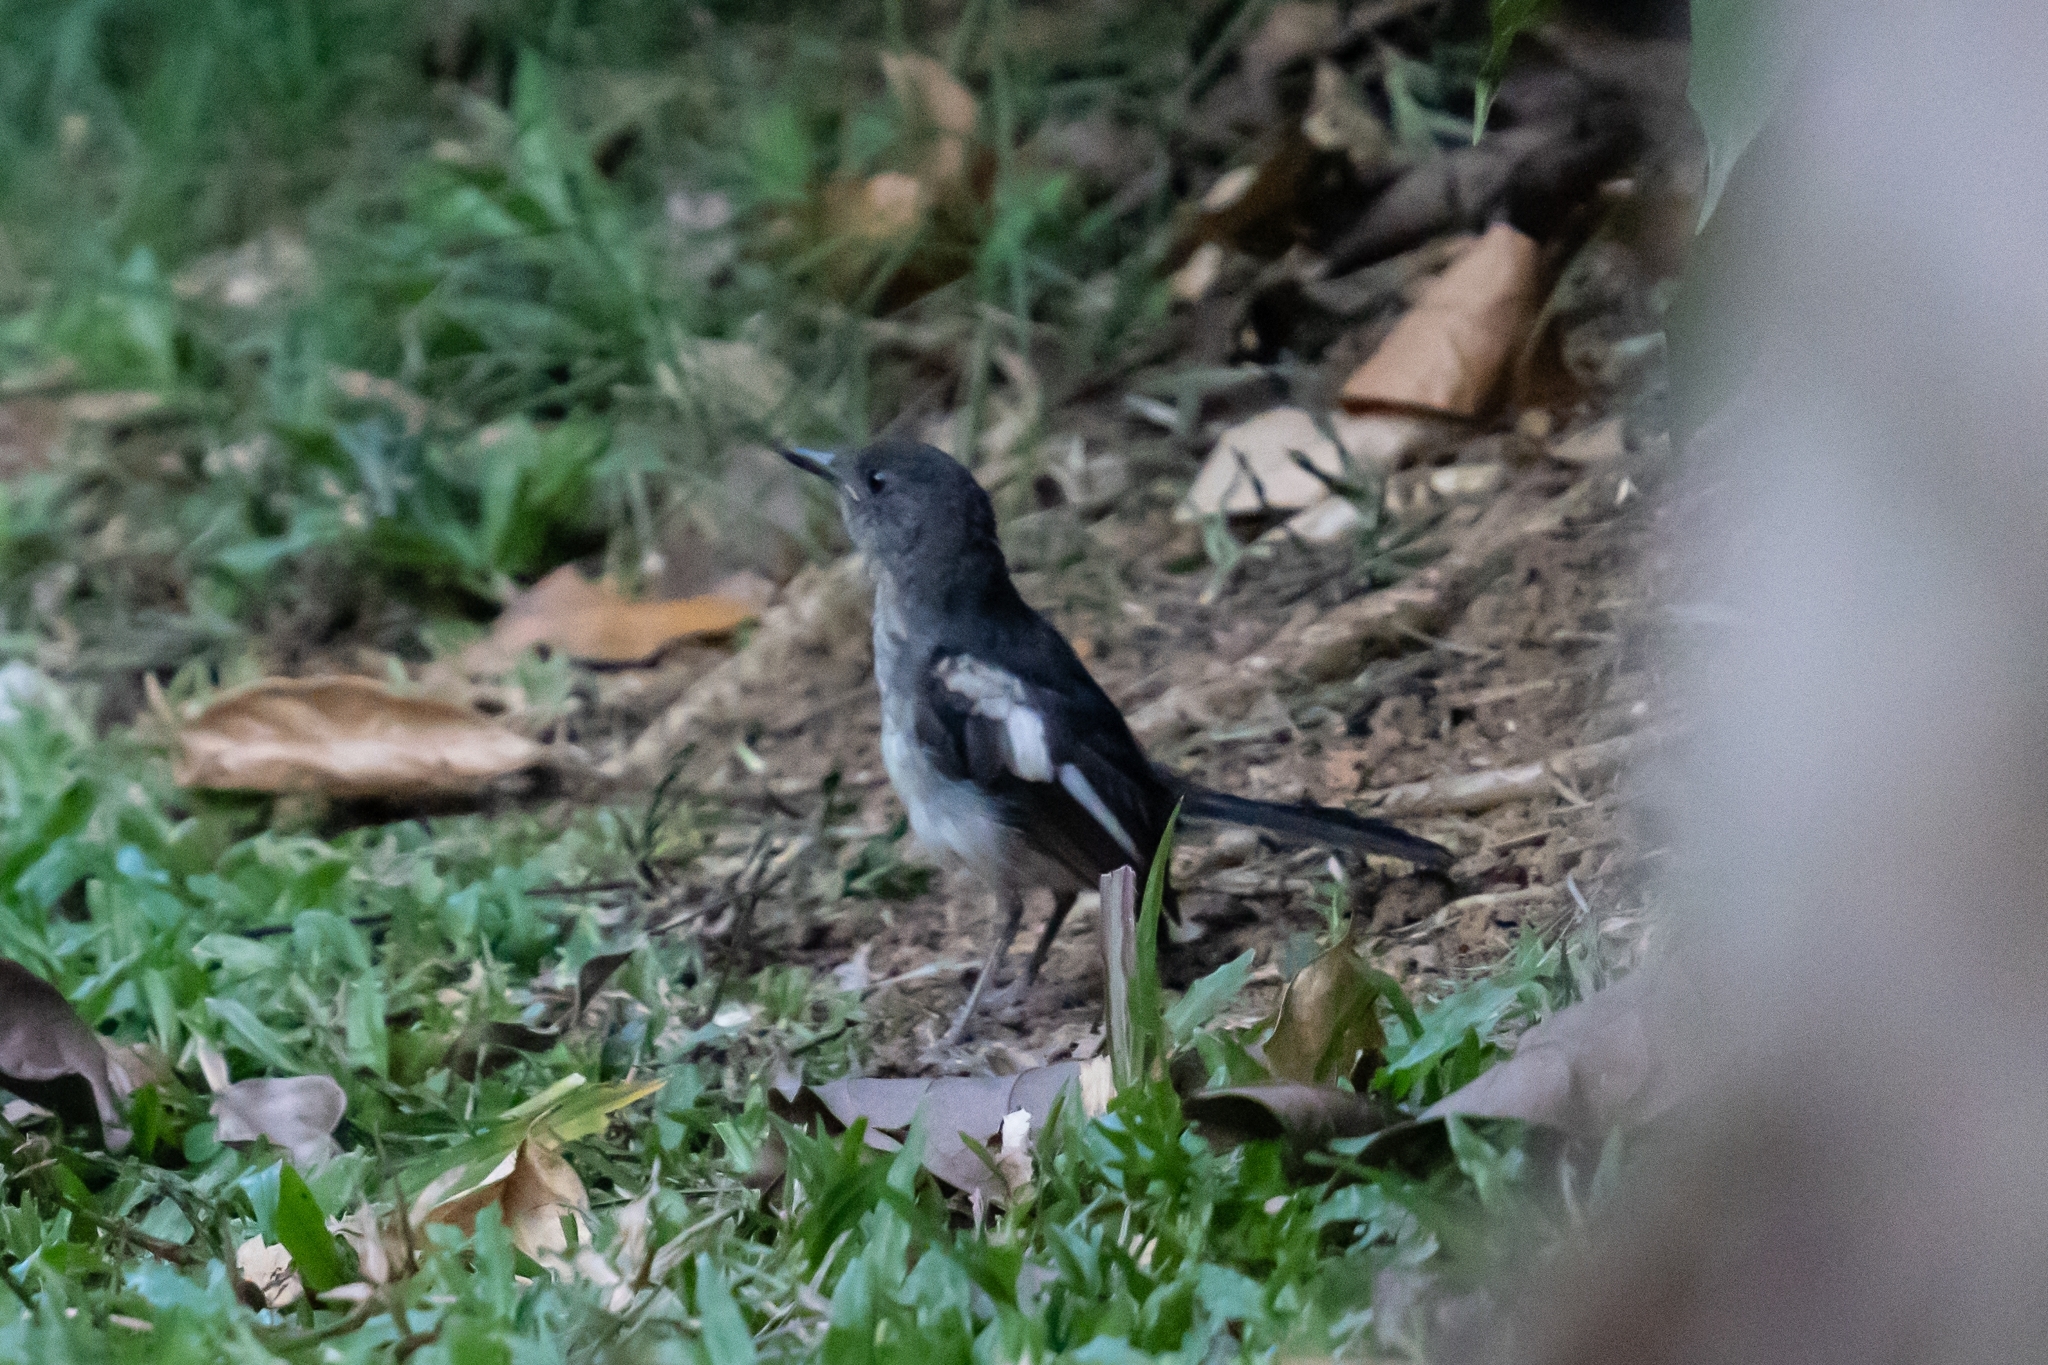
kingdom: Animalia
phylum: Chordata
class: Aves
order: Passeriformes
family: Muscicapidae
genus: Copsychus
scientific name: Copsychus saularis
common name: Oriental magpie-robin
